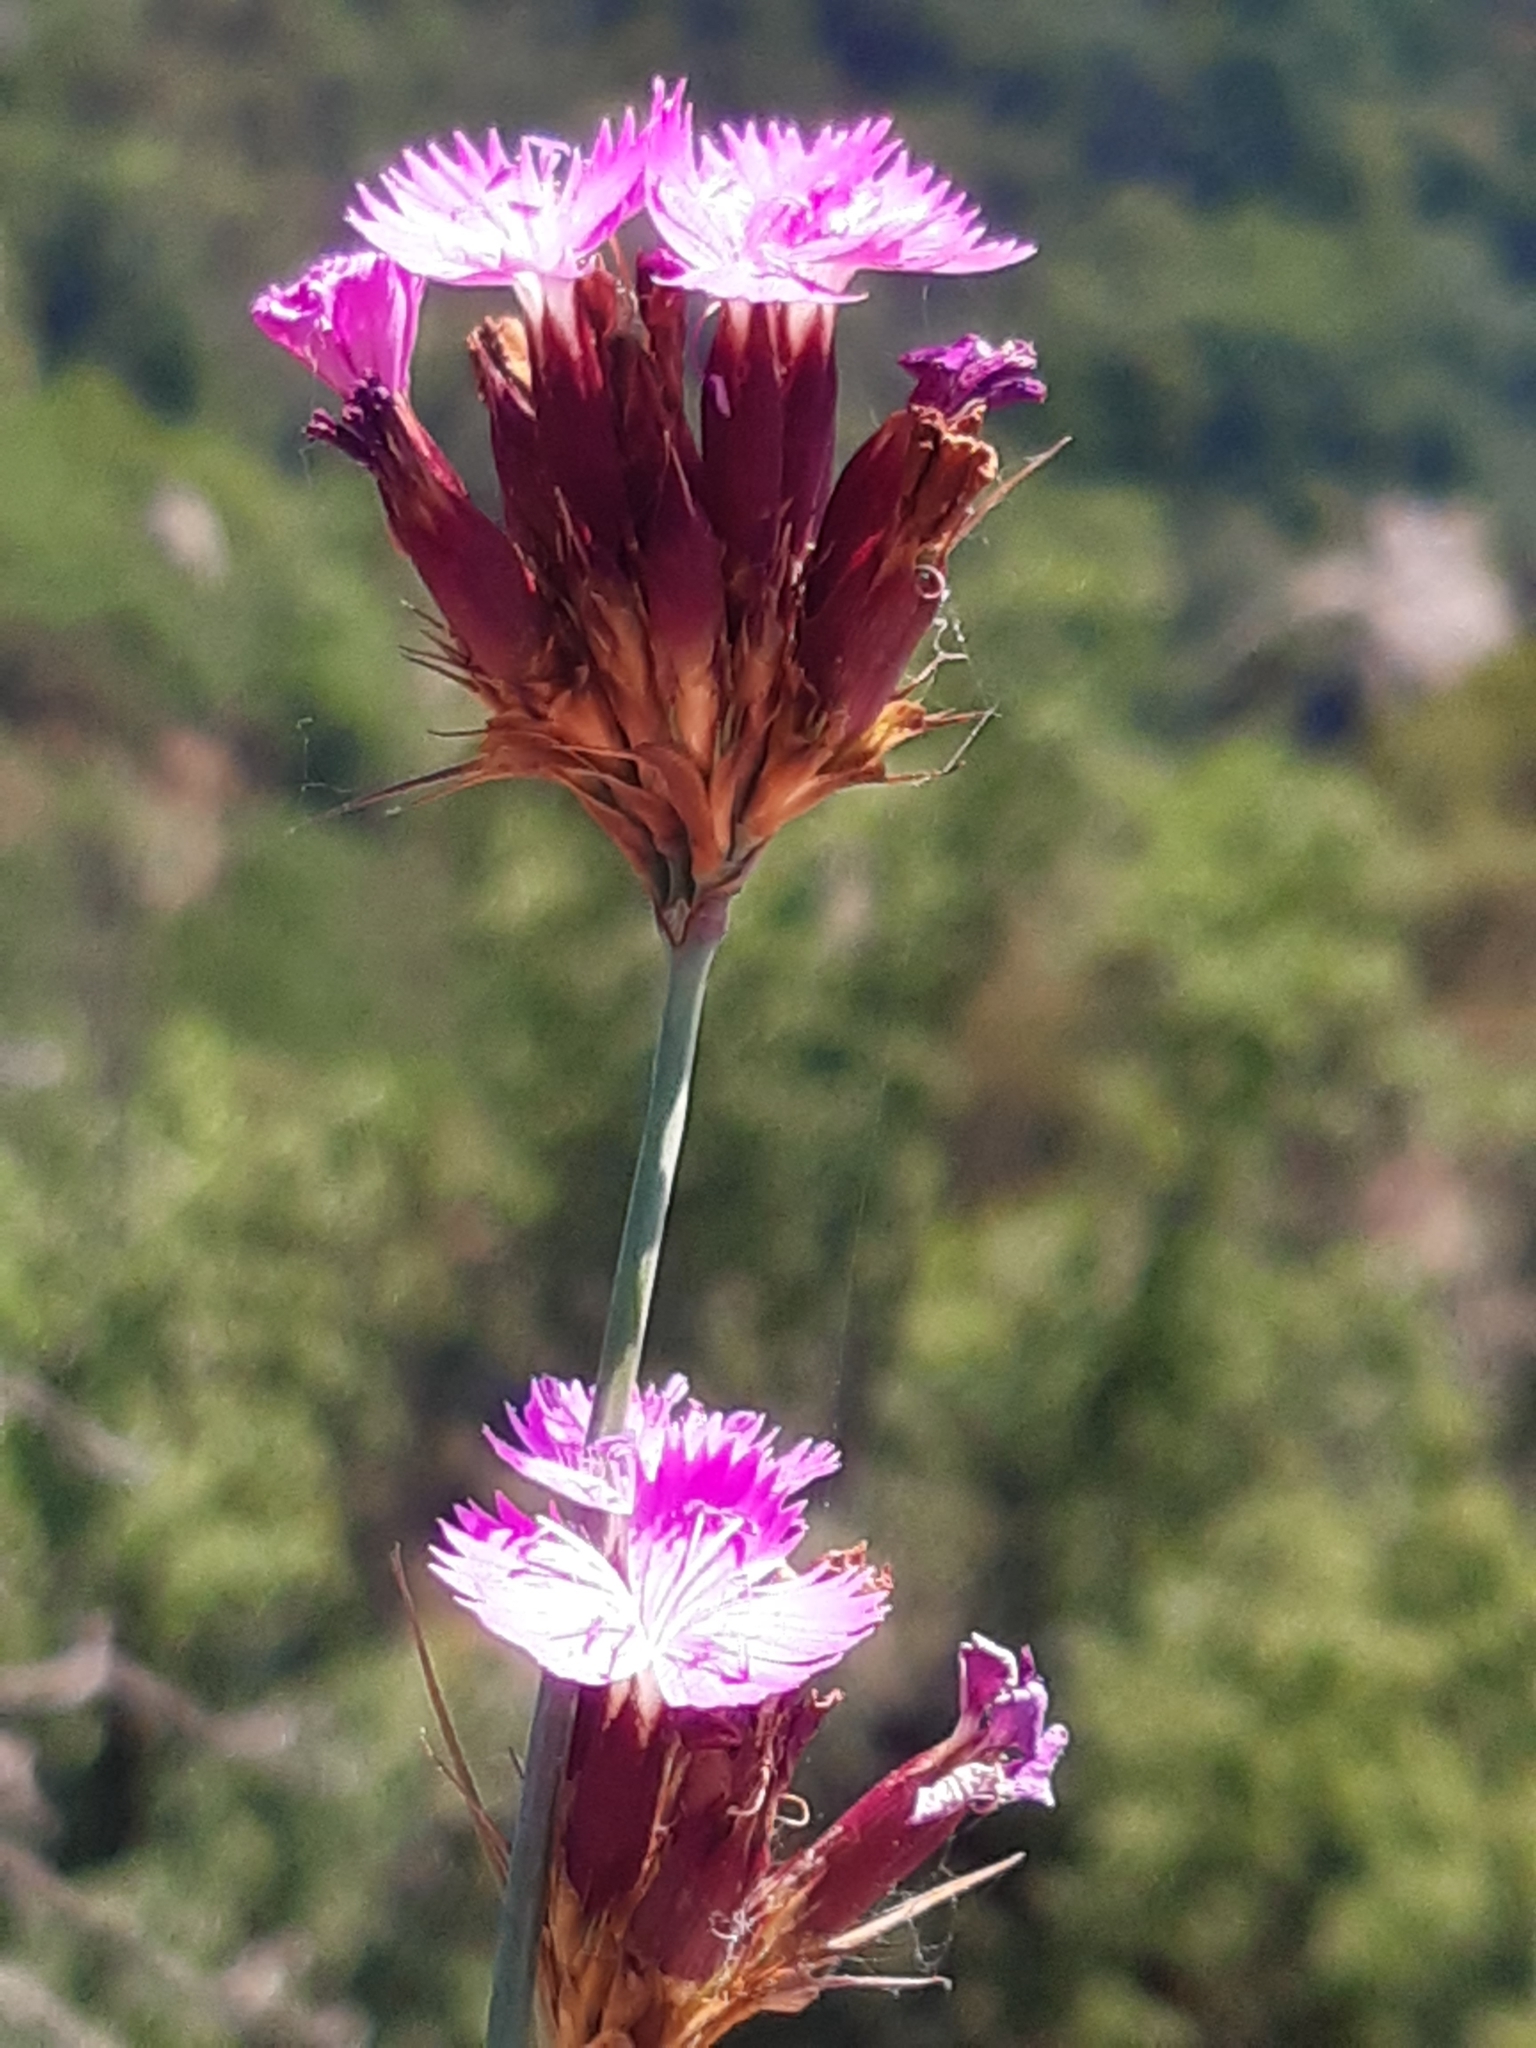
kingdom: Plantae
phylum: Tracheophyta
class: Magnoliopsida
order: Caryophyllales
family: Caryophyllaceae
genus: Dianthus
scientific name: Dianthus carthusianorum
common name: Carthusian pink
